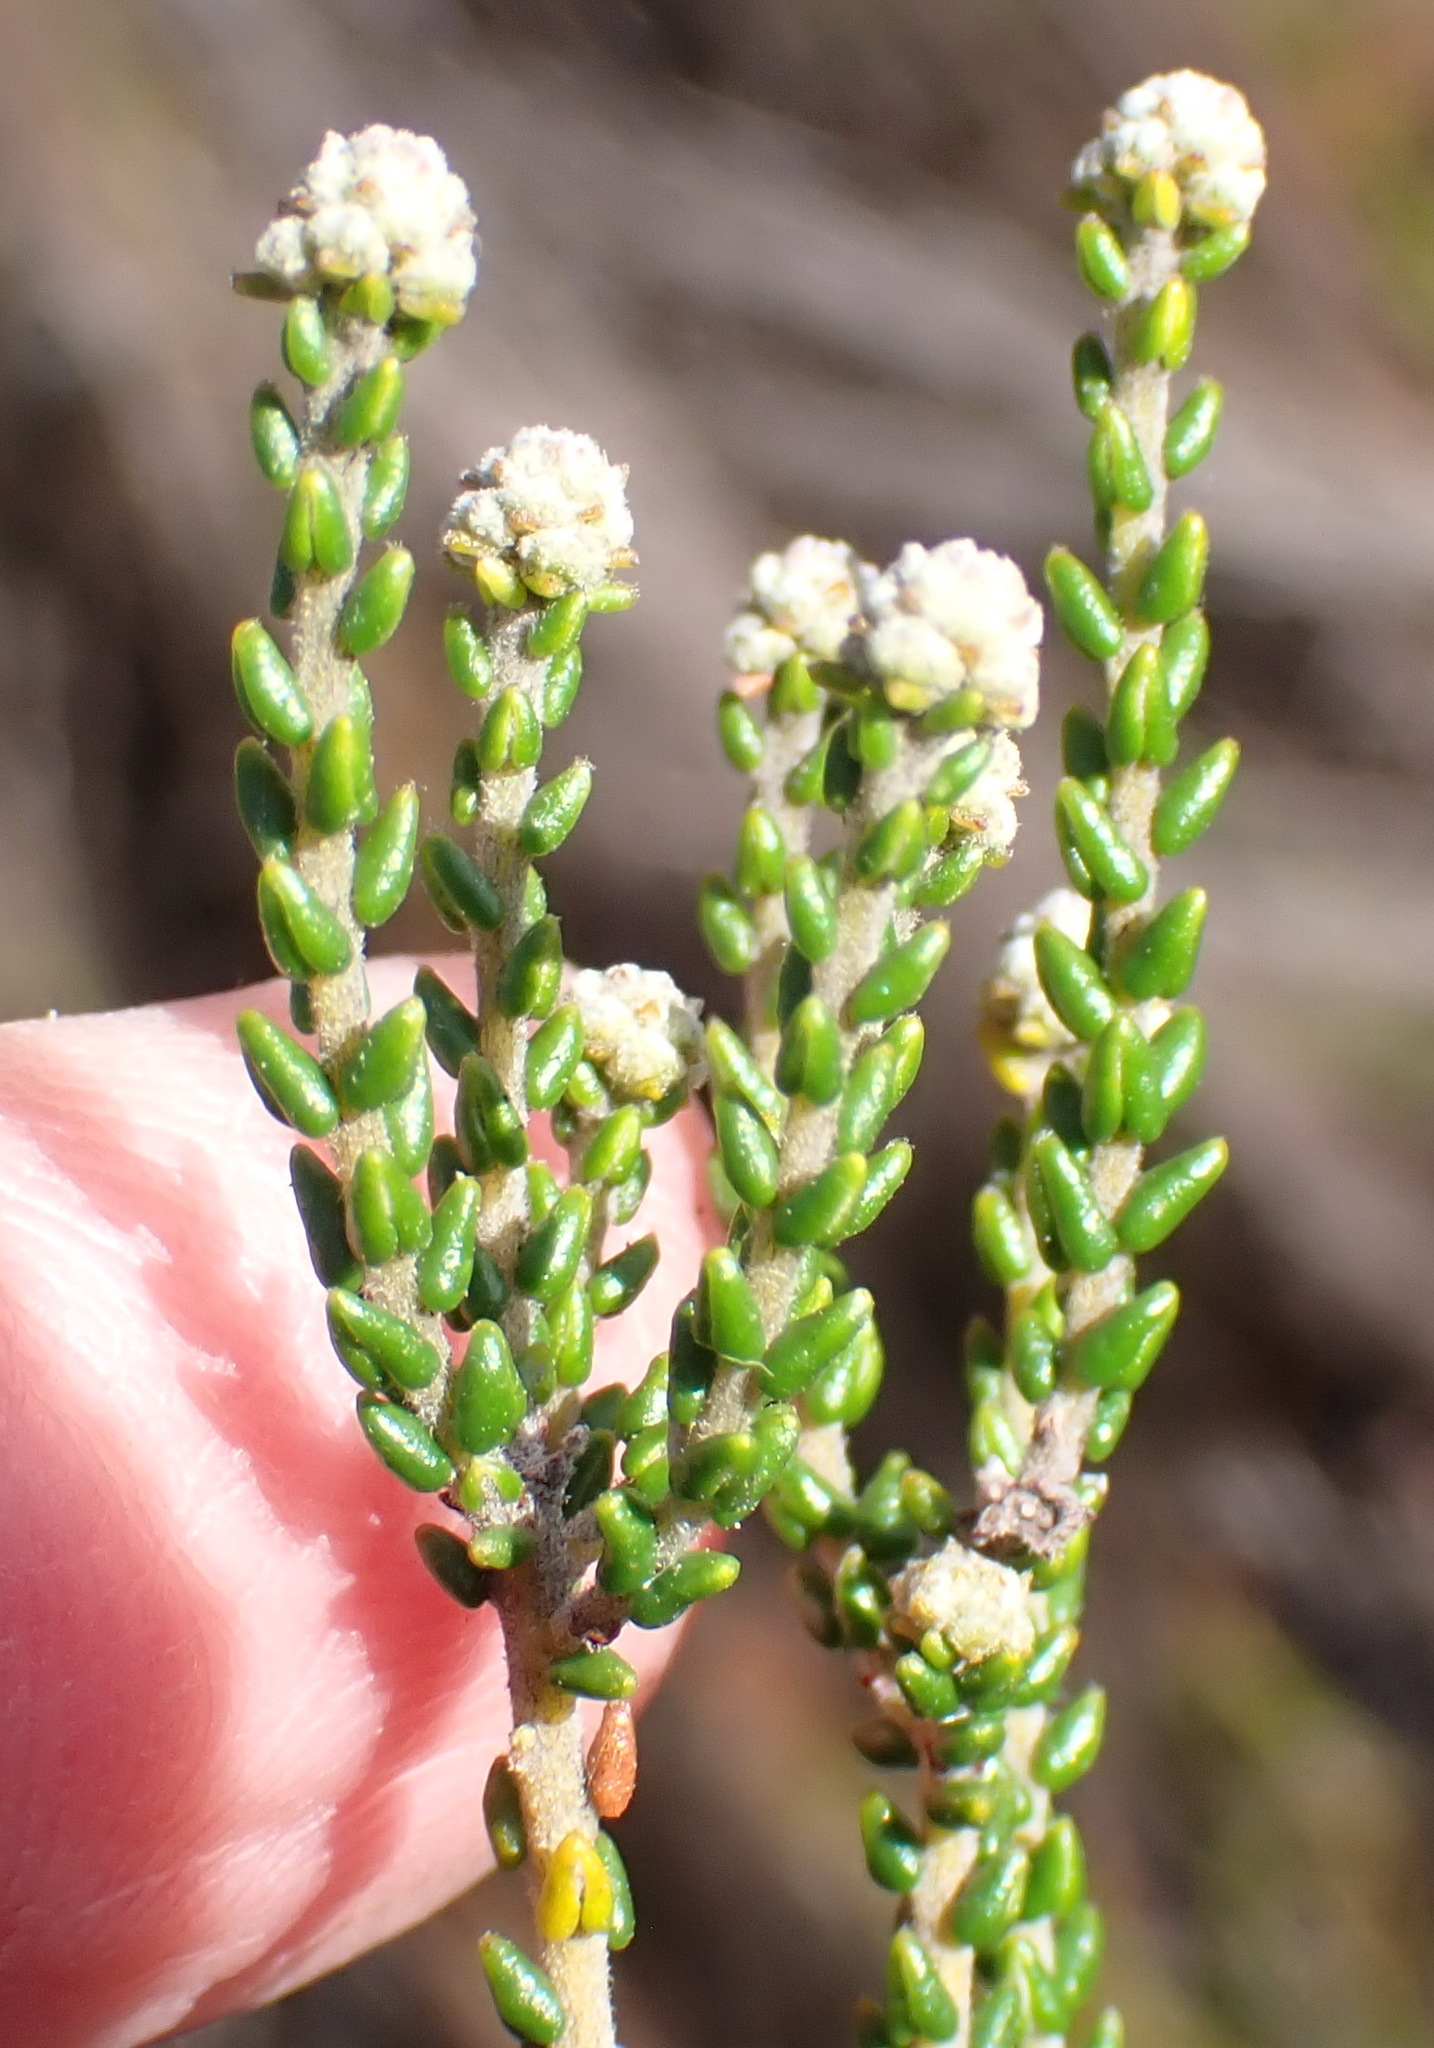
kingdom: Plantae
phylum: Tracheophyta
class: Magnoliopsida
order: Rosales
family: Rhamnaceae
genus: Phylica
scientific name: Phylica incurvata
